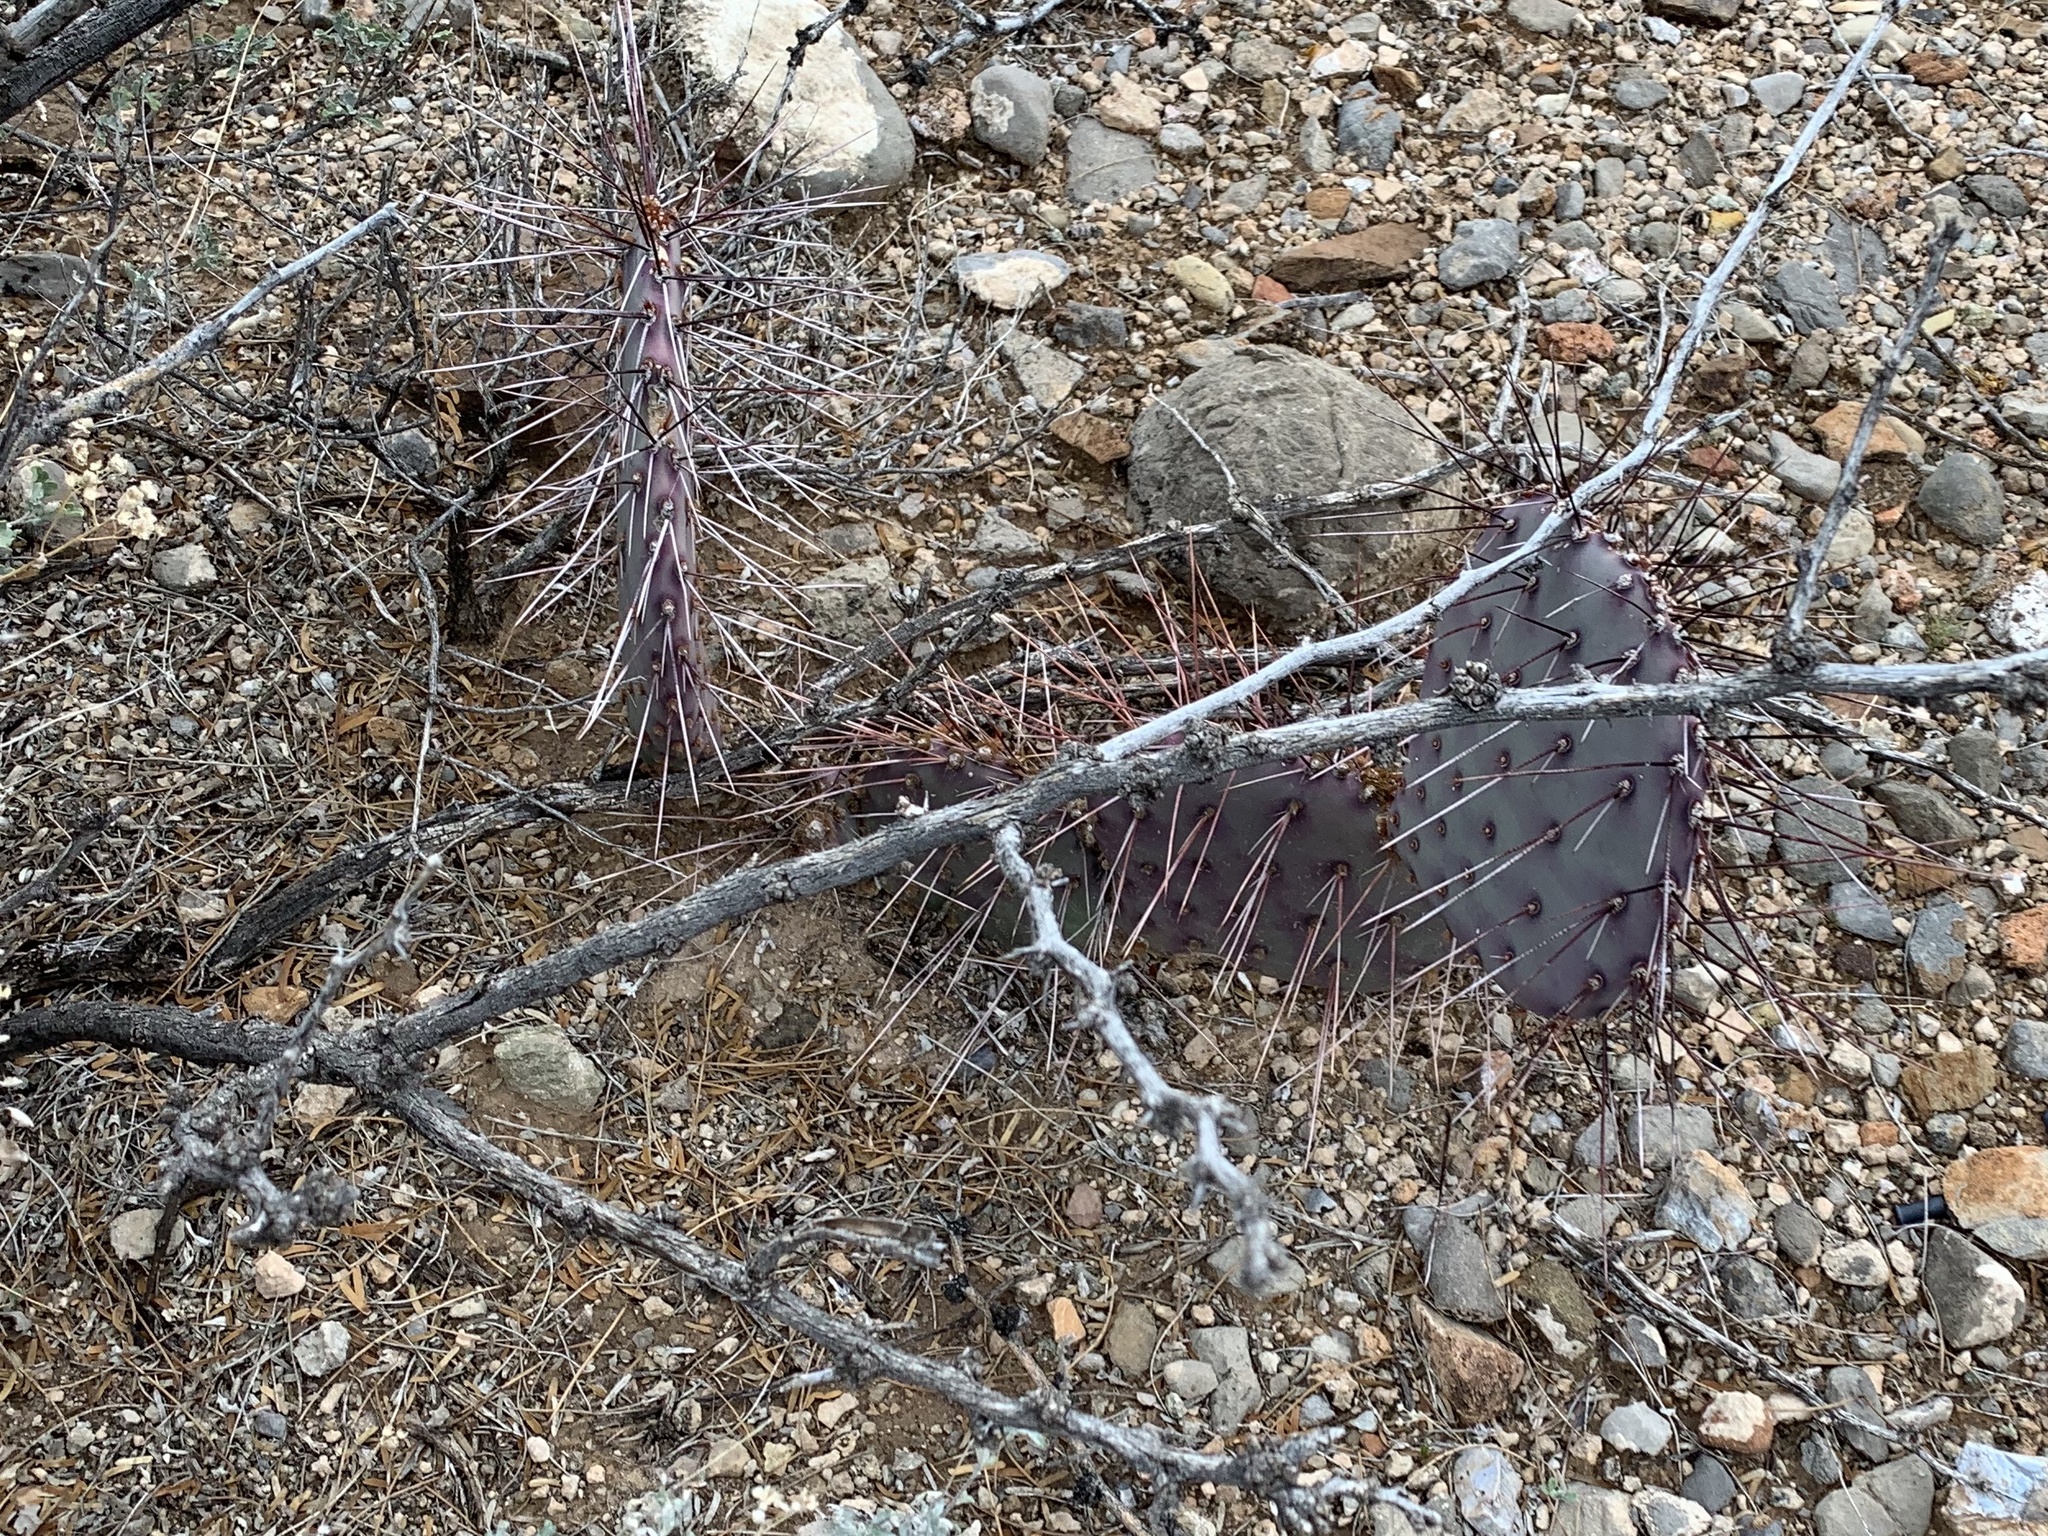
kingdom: Plantae
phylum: Tracheophyta
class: Magnoliopsida
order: Caryophyllales
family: Cactaceae
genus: Opuntia
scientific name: Opuntia macrocentra
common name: Purple prickly-pear
